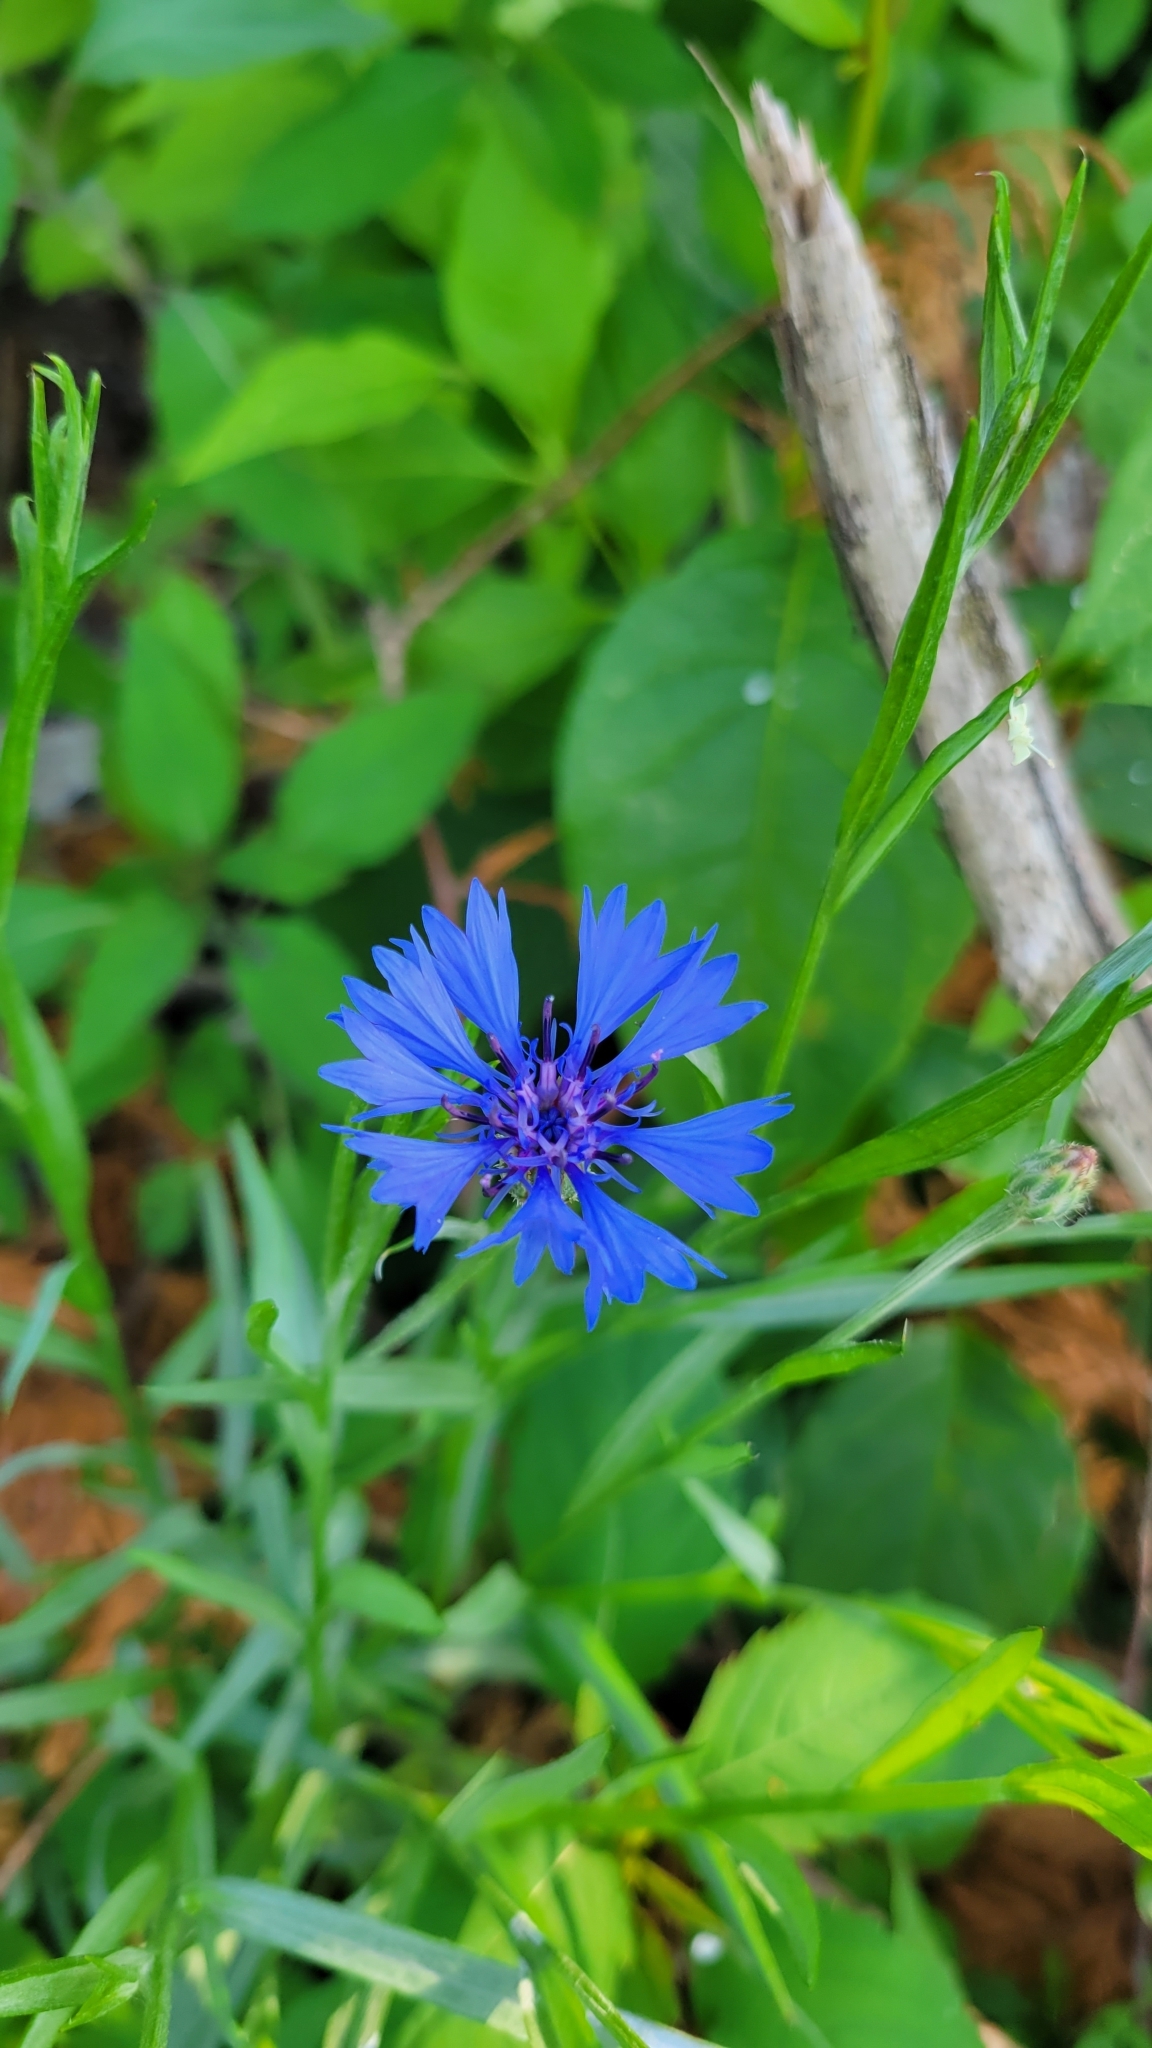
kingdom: Plantae
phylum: Tracheophyta
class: Magnoliopsida
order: Asterales
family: Asteraceae
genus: Centaurea
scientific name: Centaurea cyanus
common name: Cornflower
